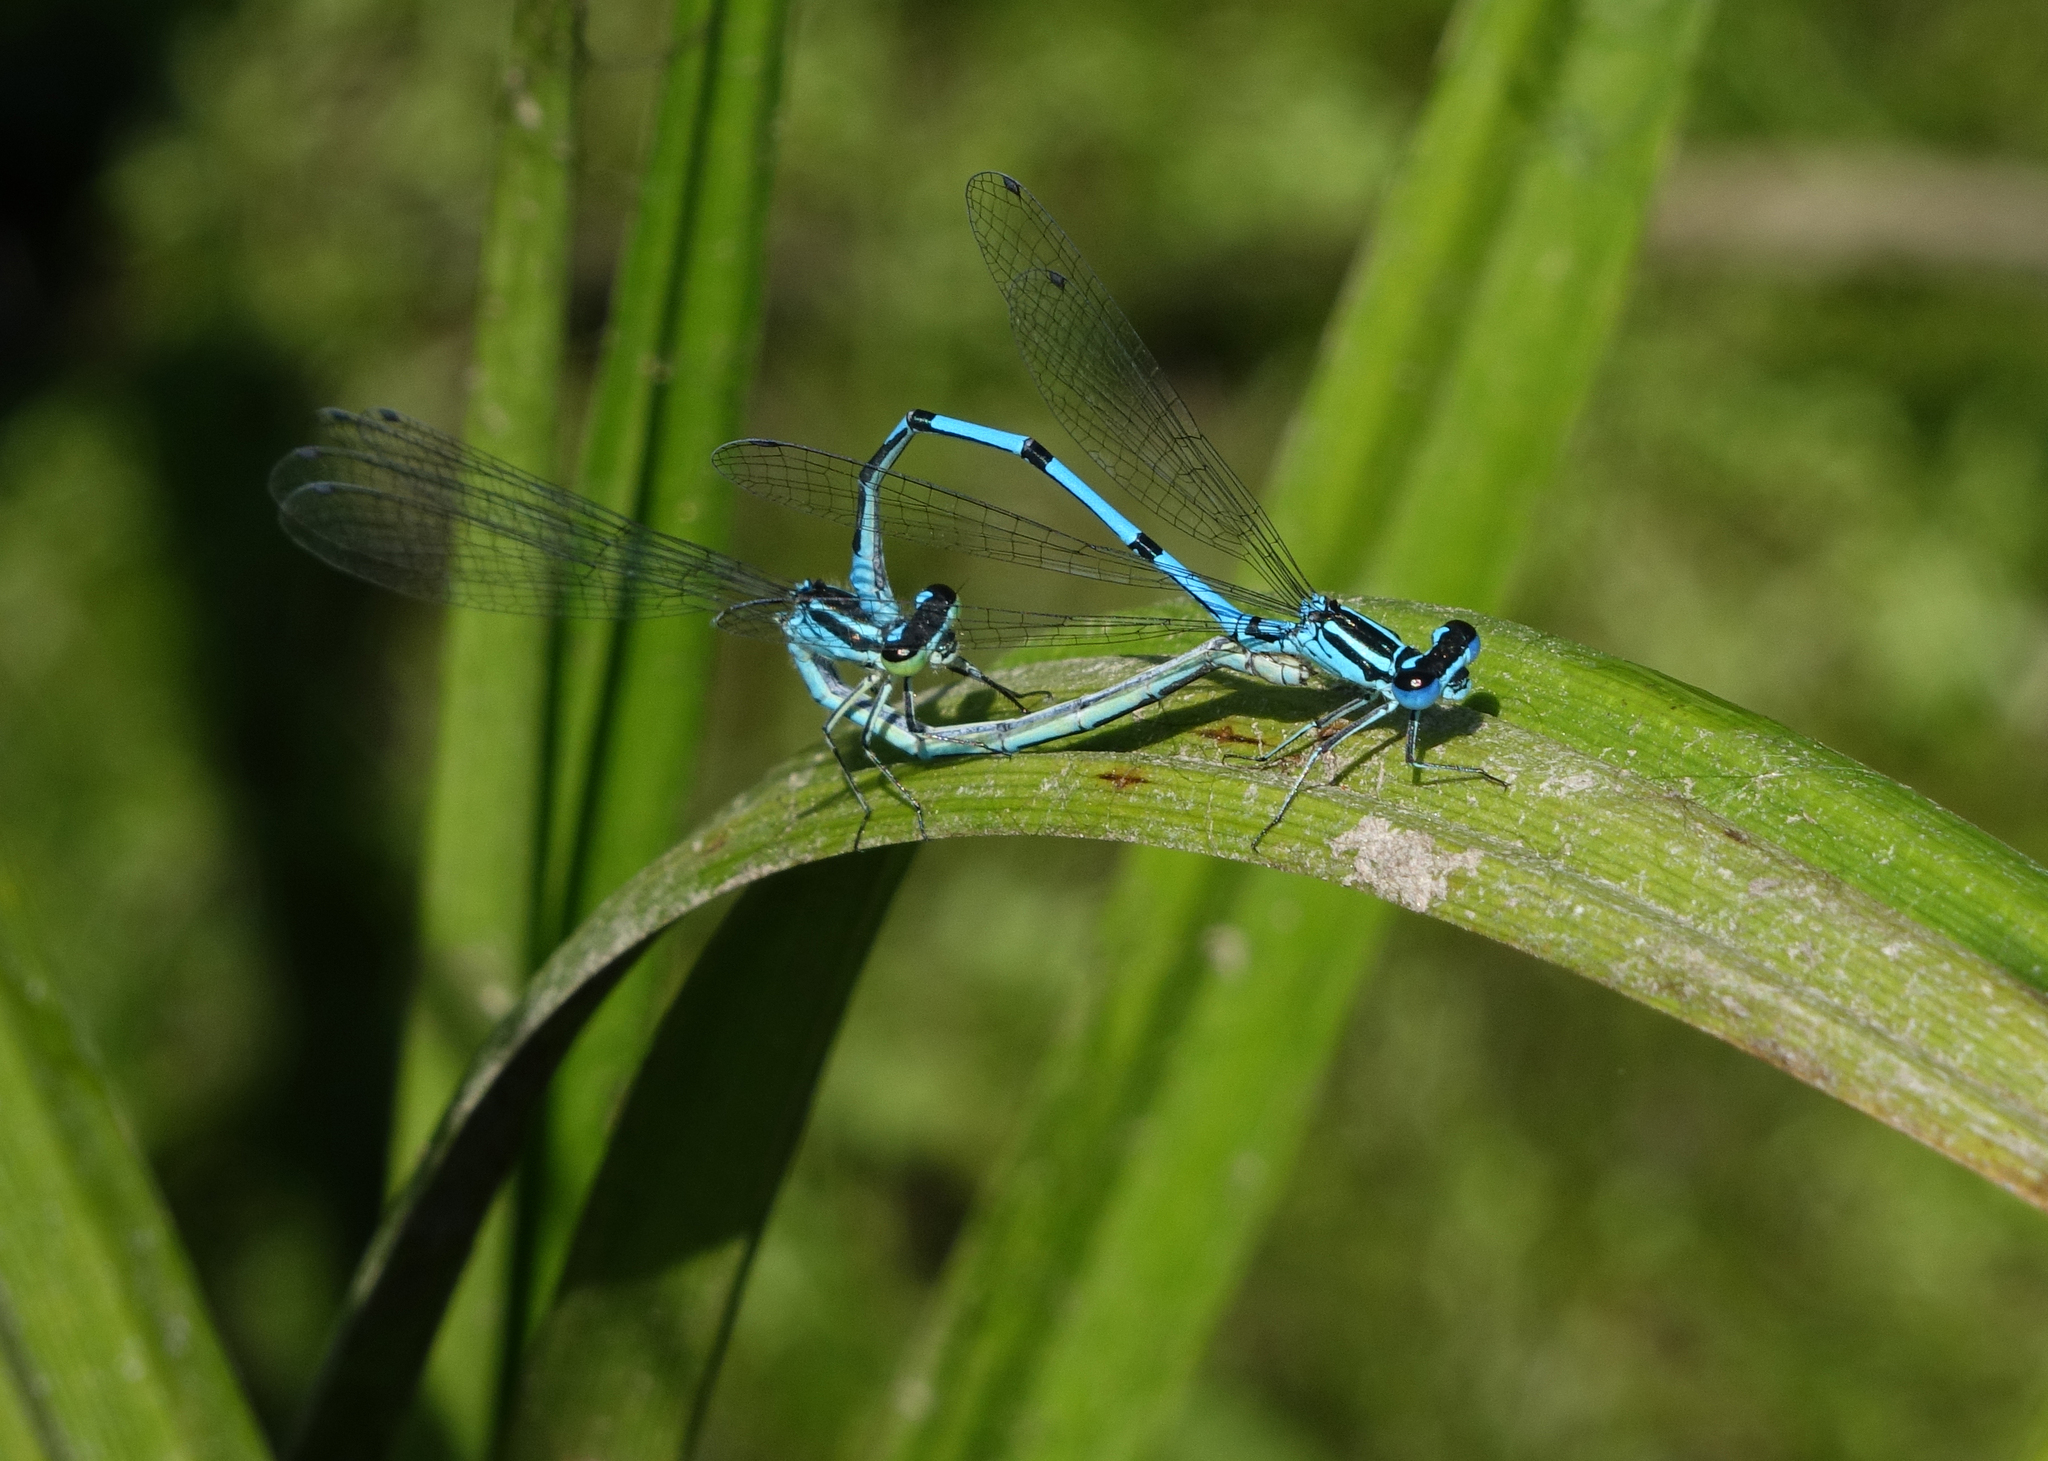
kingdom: Animalia
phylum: Arthropoda
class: Insecta
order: Odonata
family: Coenagrionidae
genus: Coenagrion
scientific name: Coenagrion puella
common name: Azure damselfly
